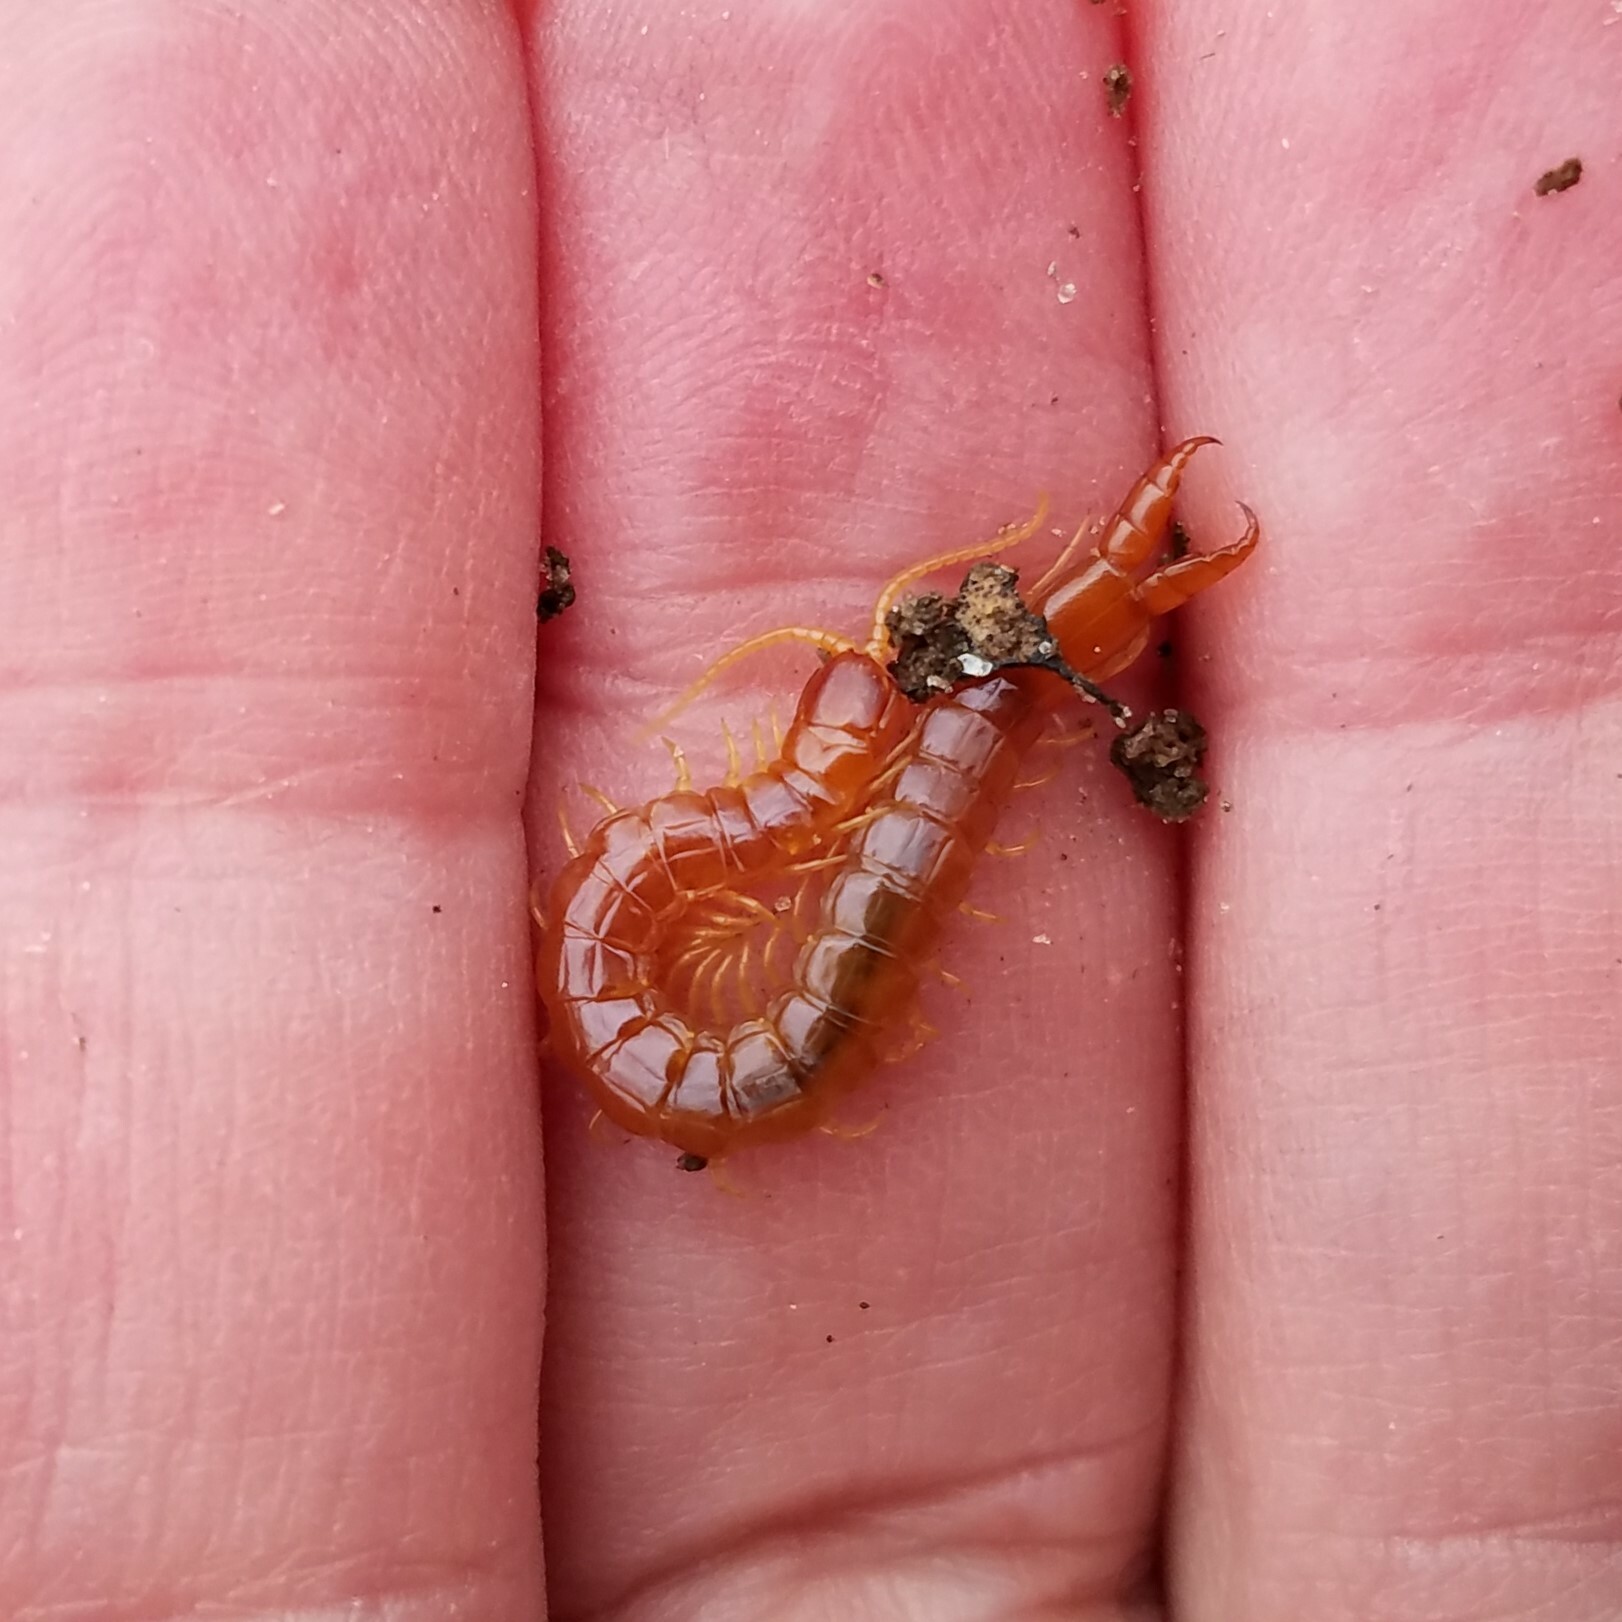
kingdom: Animalia
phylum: Arthropoda
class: Chilopoda
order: Scolopendromorpha
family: Cryptopidae
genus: Theatops
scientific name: Theatops posticus
